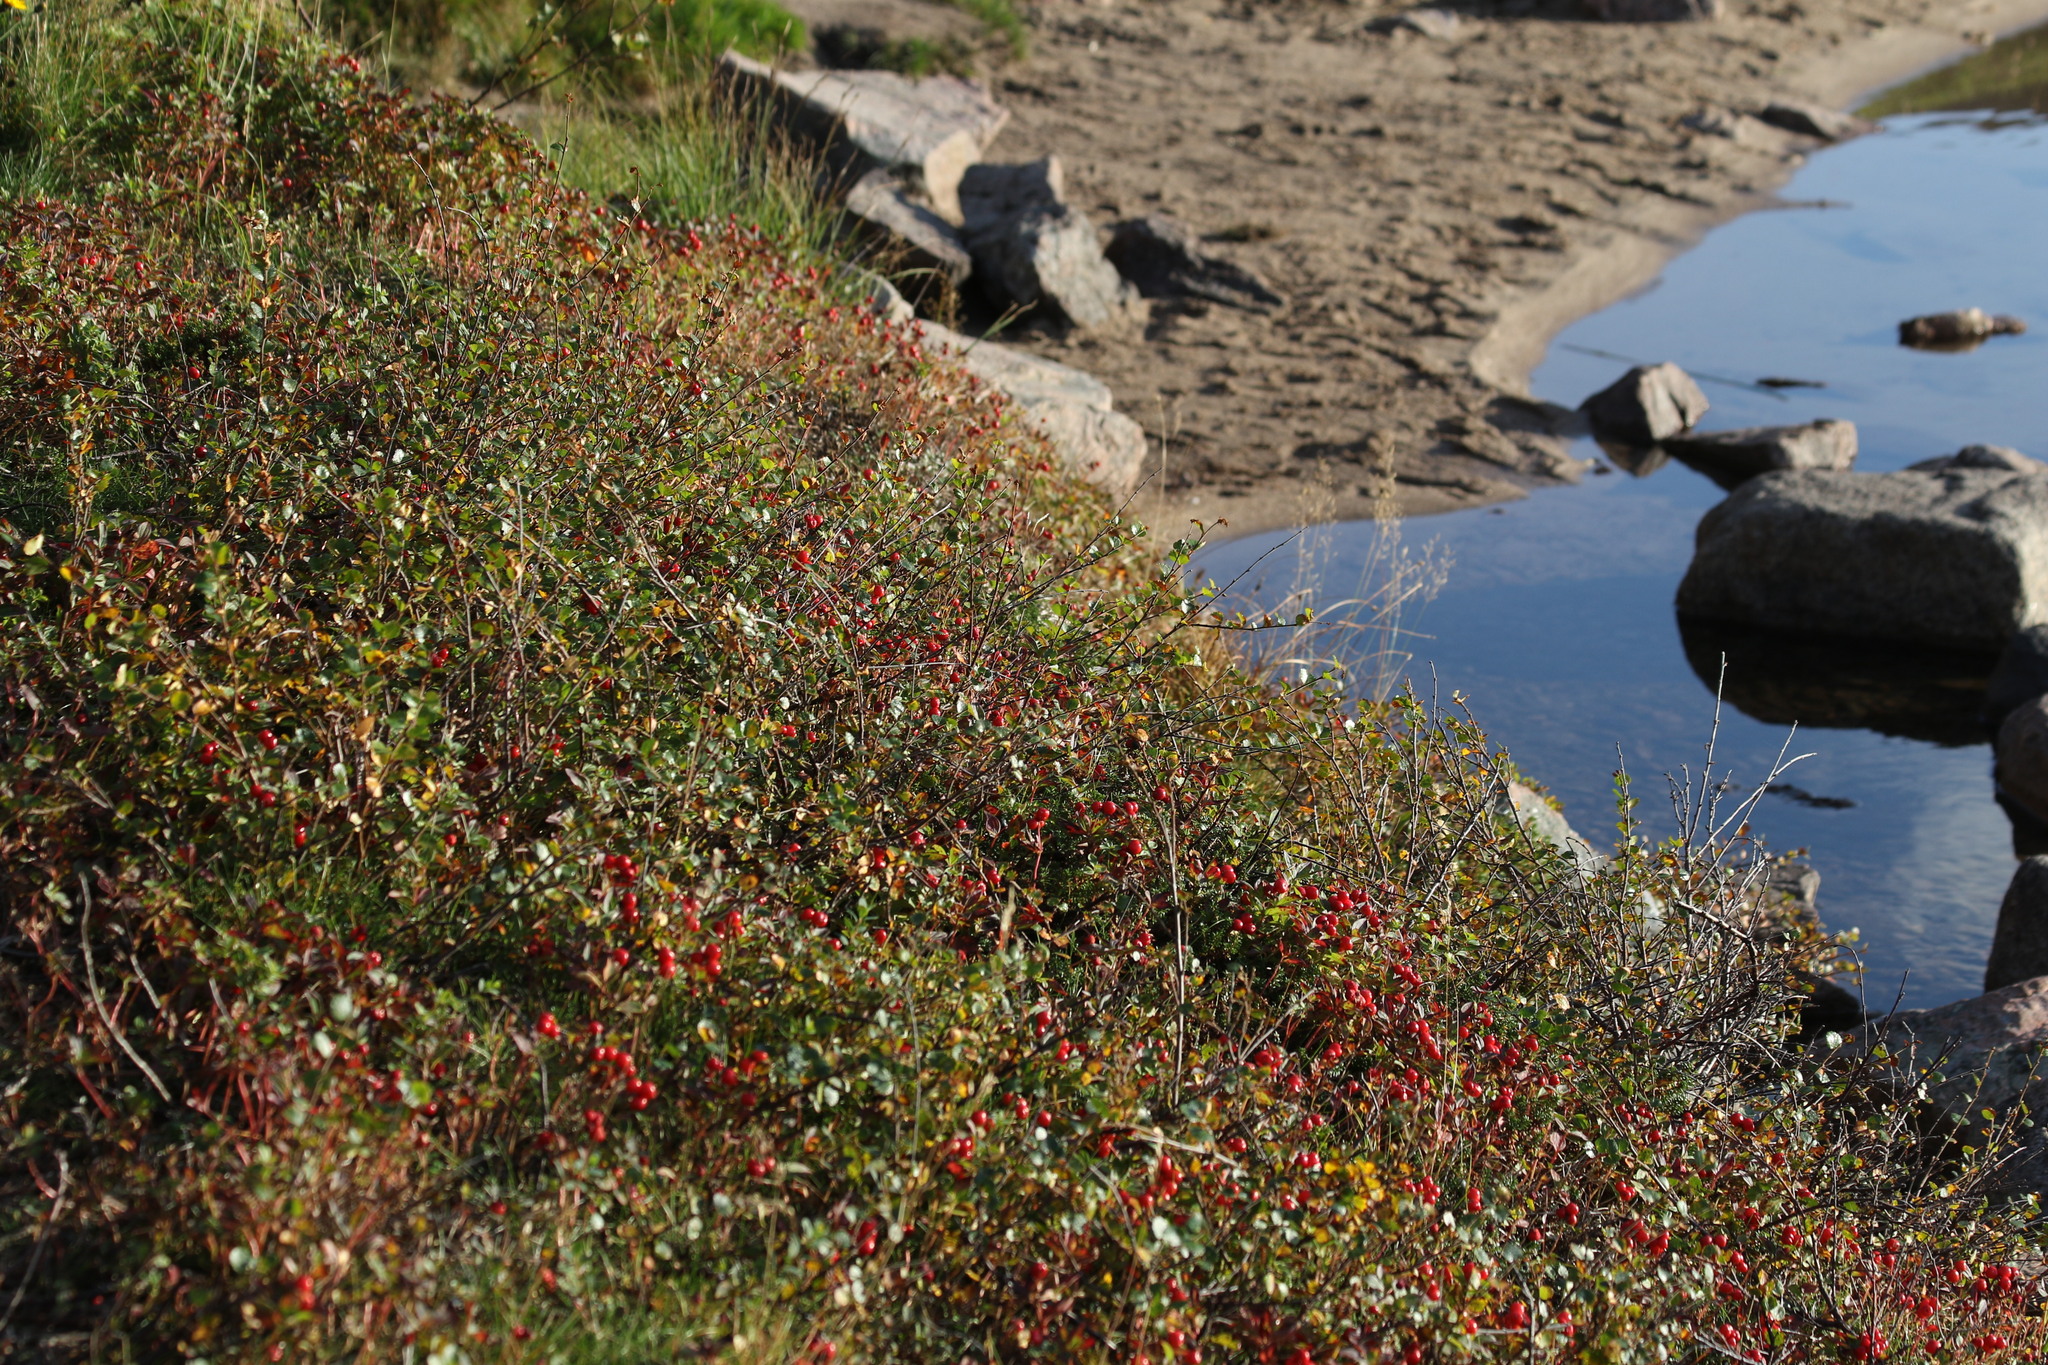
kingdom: Plantae
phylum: Tracheophyta
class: Magnoliopsida
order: Cornales
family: Cornaceae
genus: Cornus
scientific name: Cornus suecica
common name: Dwarf cornel
